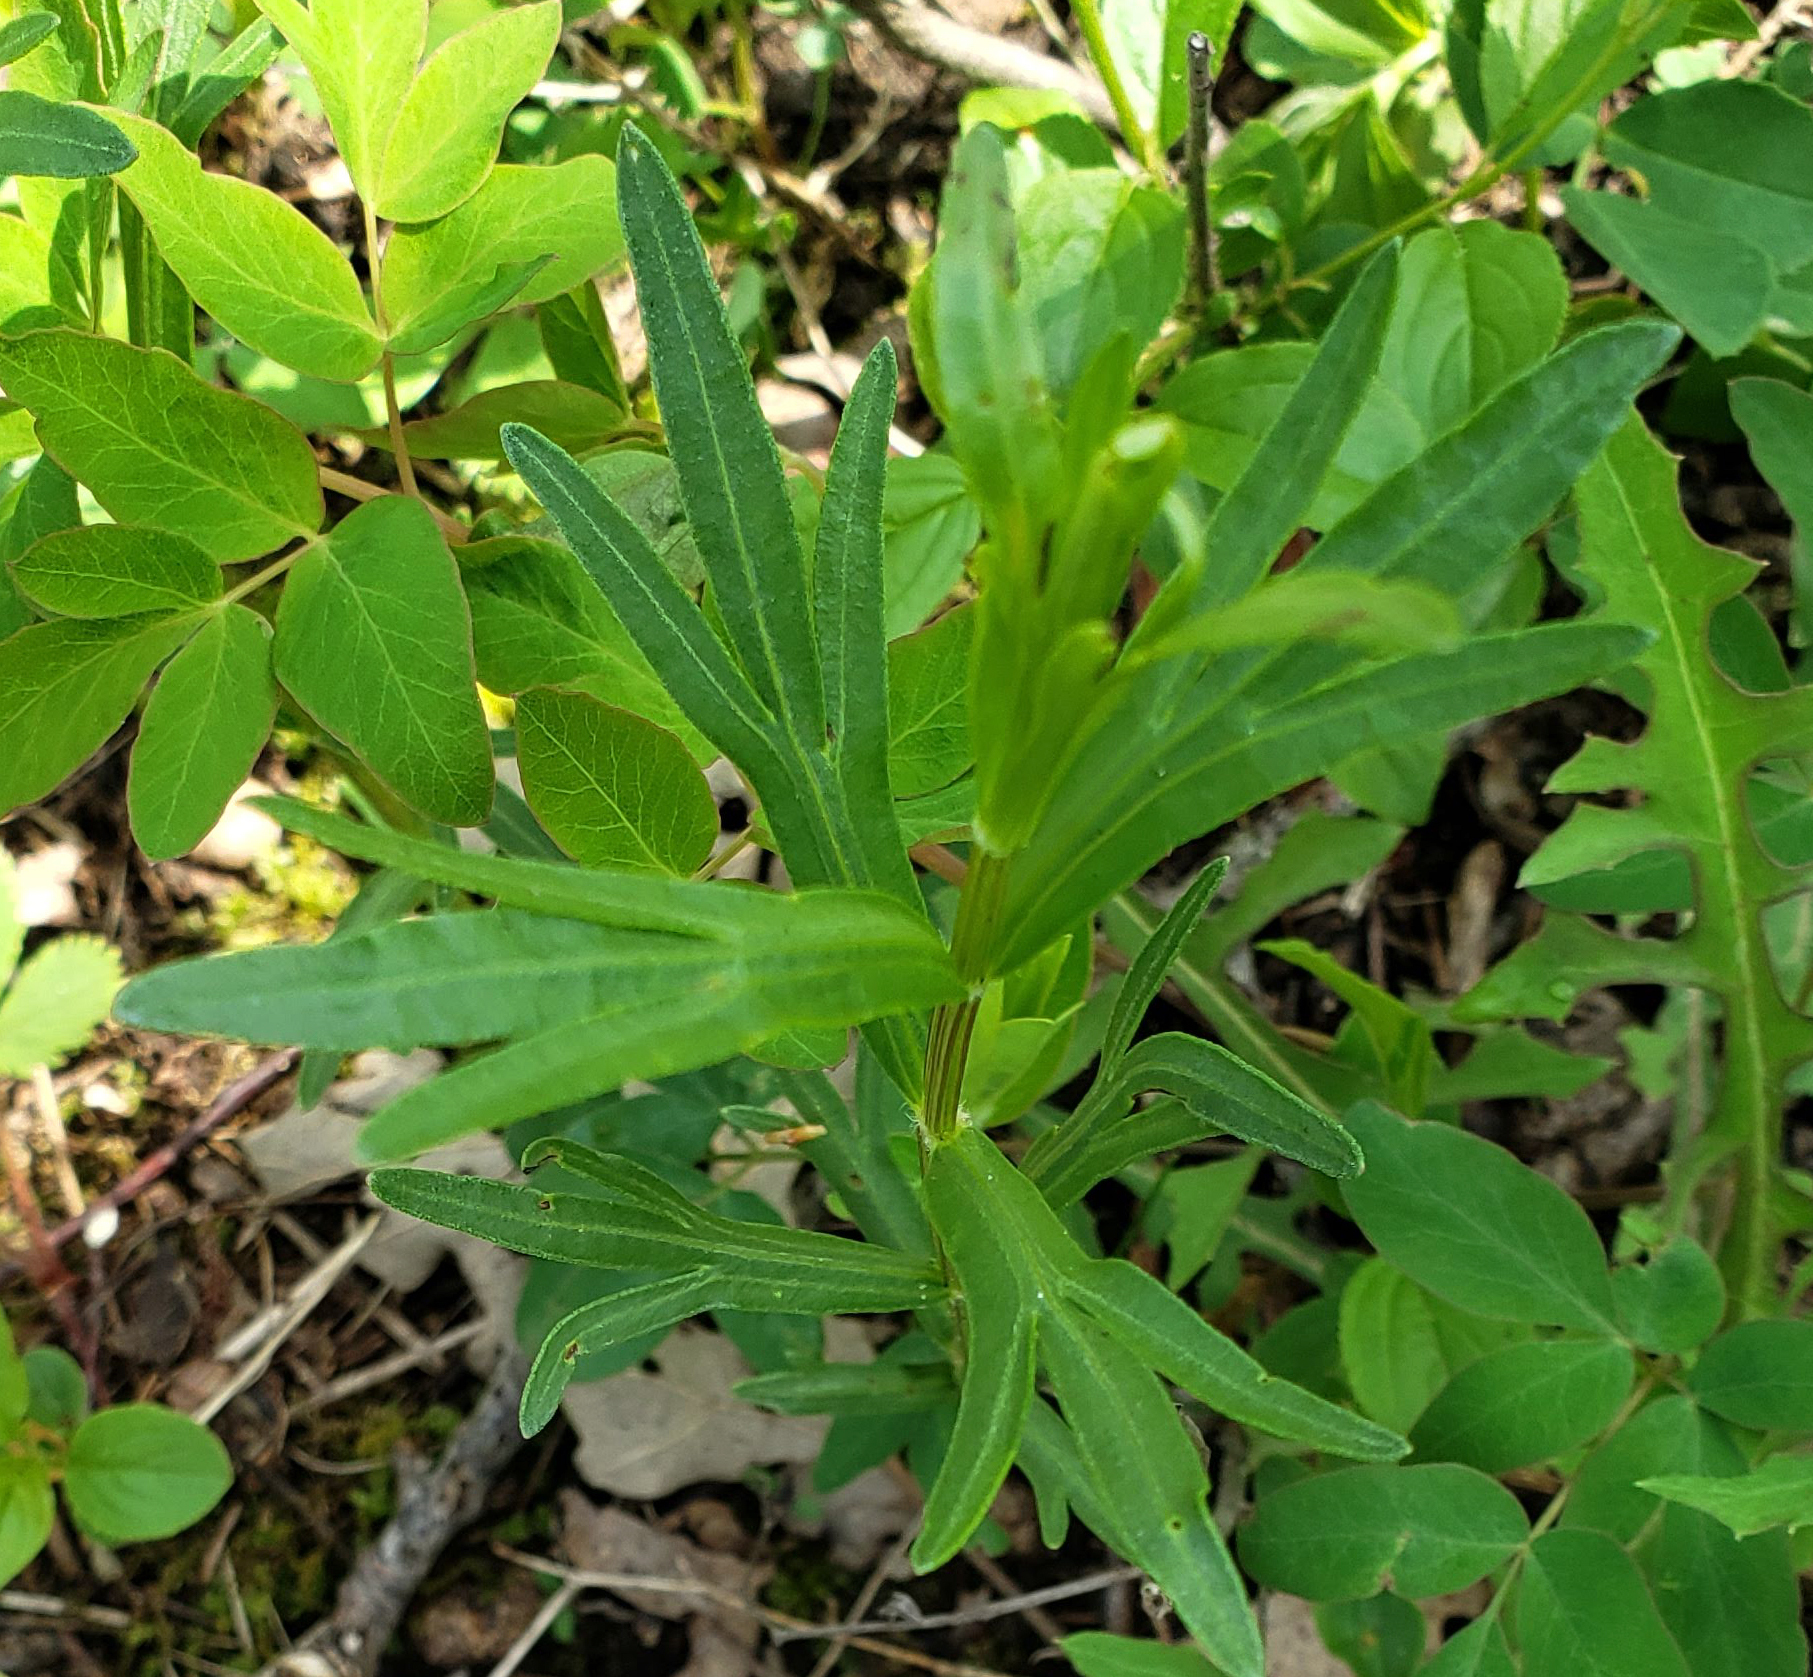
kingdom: Plantae
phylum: Tracheophyta
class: Magnoliopsida
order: Asterales
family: Asteraceae
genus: Coreopsis
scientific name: Coreopsis palmata
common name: Prairie coreopsis
